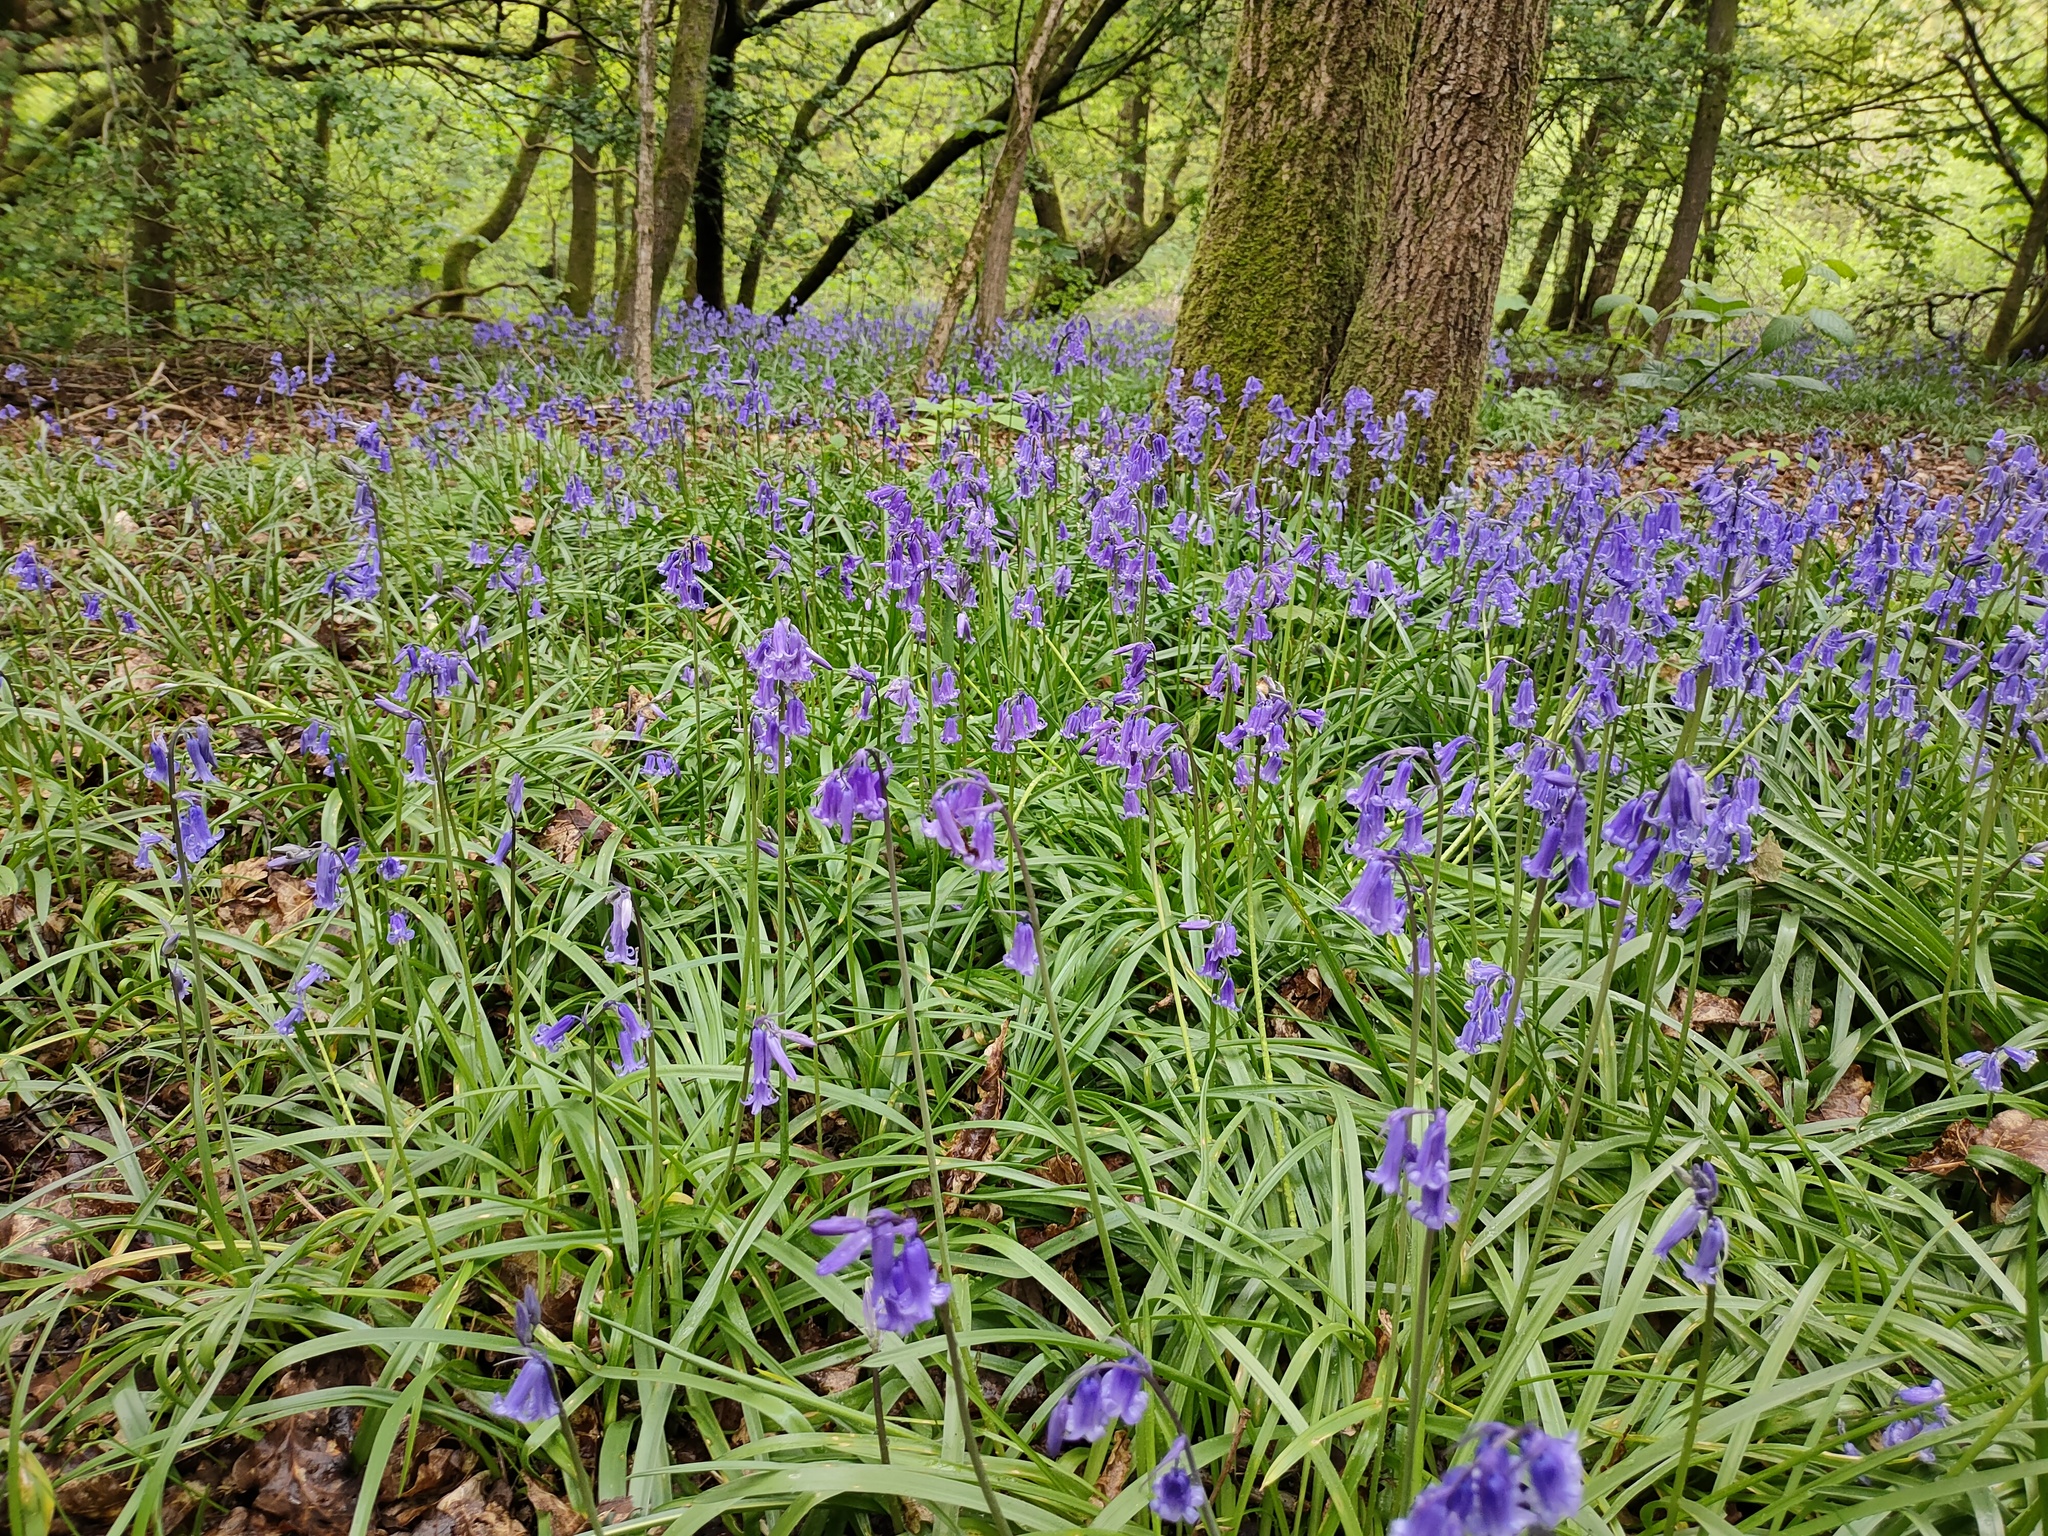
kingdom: Plantae
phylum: Tracheophyta
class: Liliopsida
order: Asparagales
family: Asparagaceae
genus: Hyacinthoides
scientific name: Hyacinthoides non-scripta
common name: Bluebell
